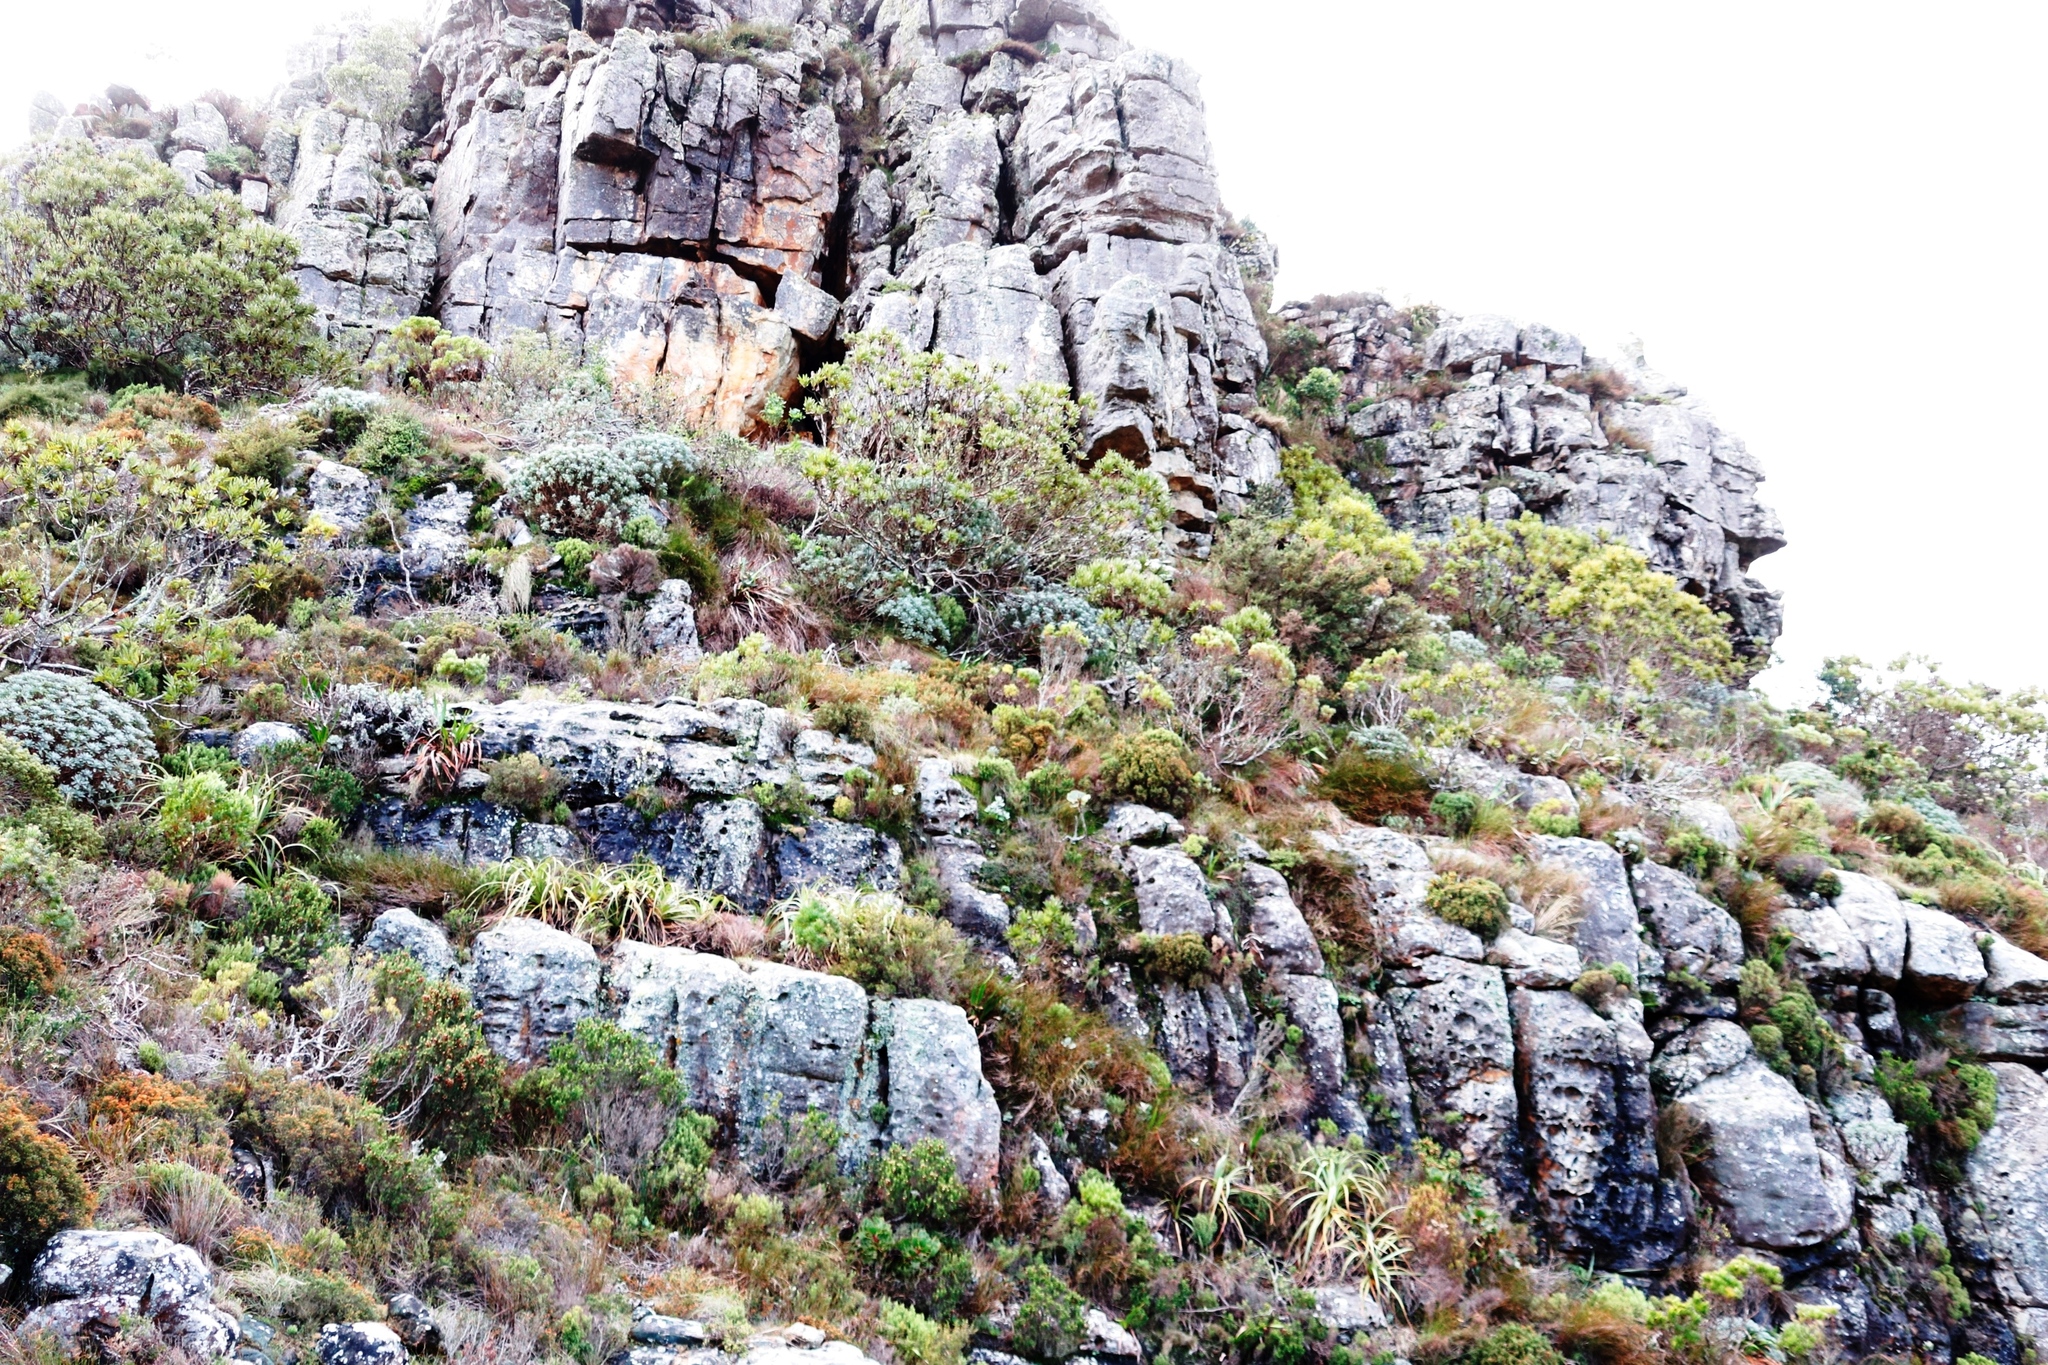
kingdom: Plantae
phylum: Tracheophyta
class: Magnoliopsida
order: Asterales
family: Asteraceae
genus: Euryops
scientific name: Euryops pectinatus
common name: Gray-leaf euryops
